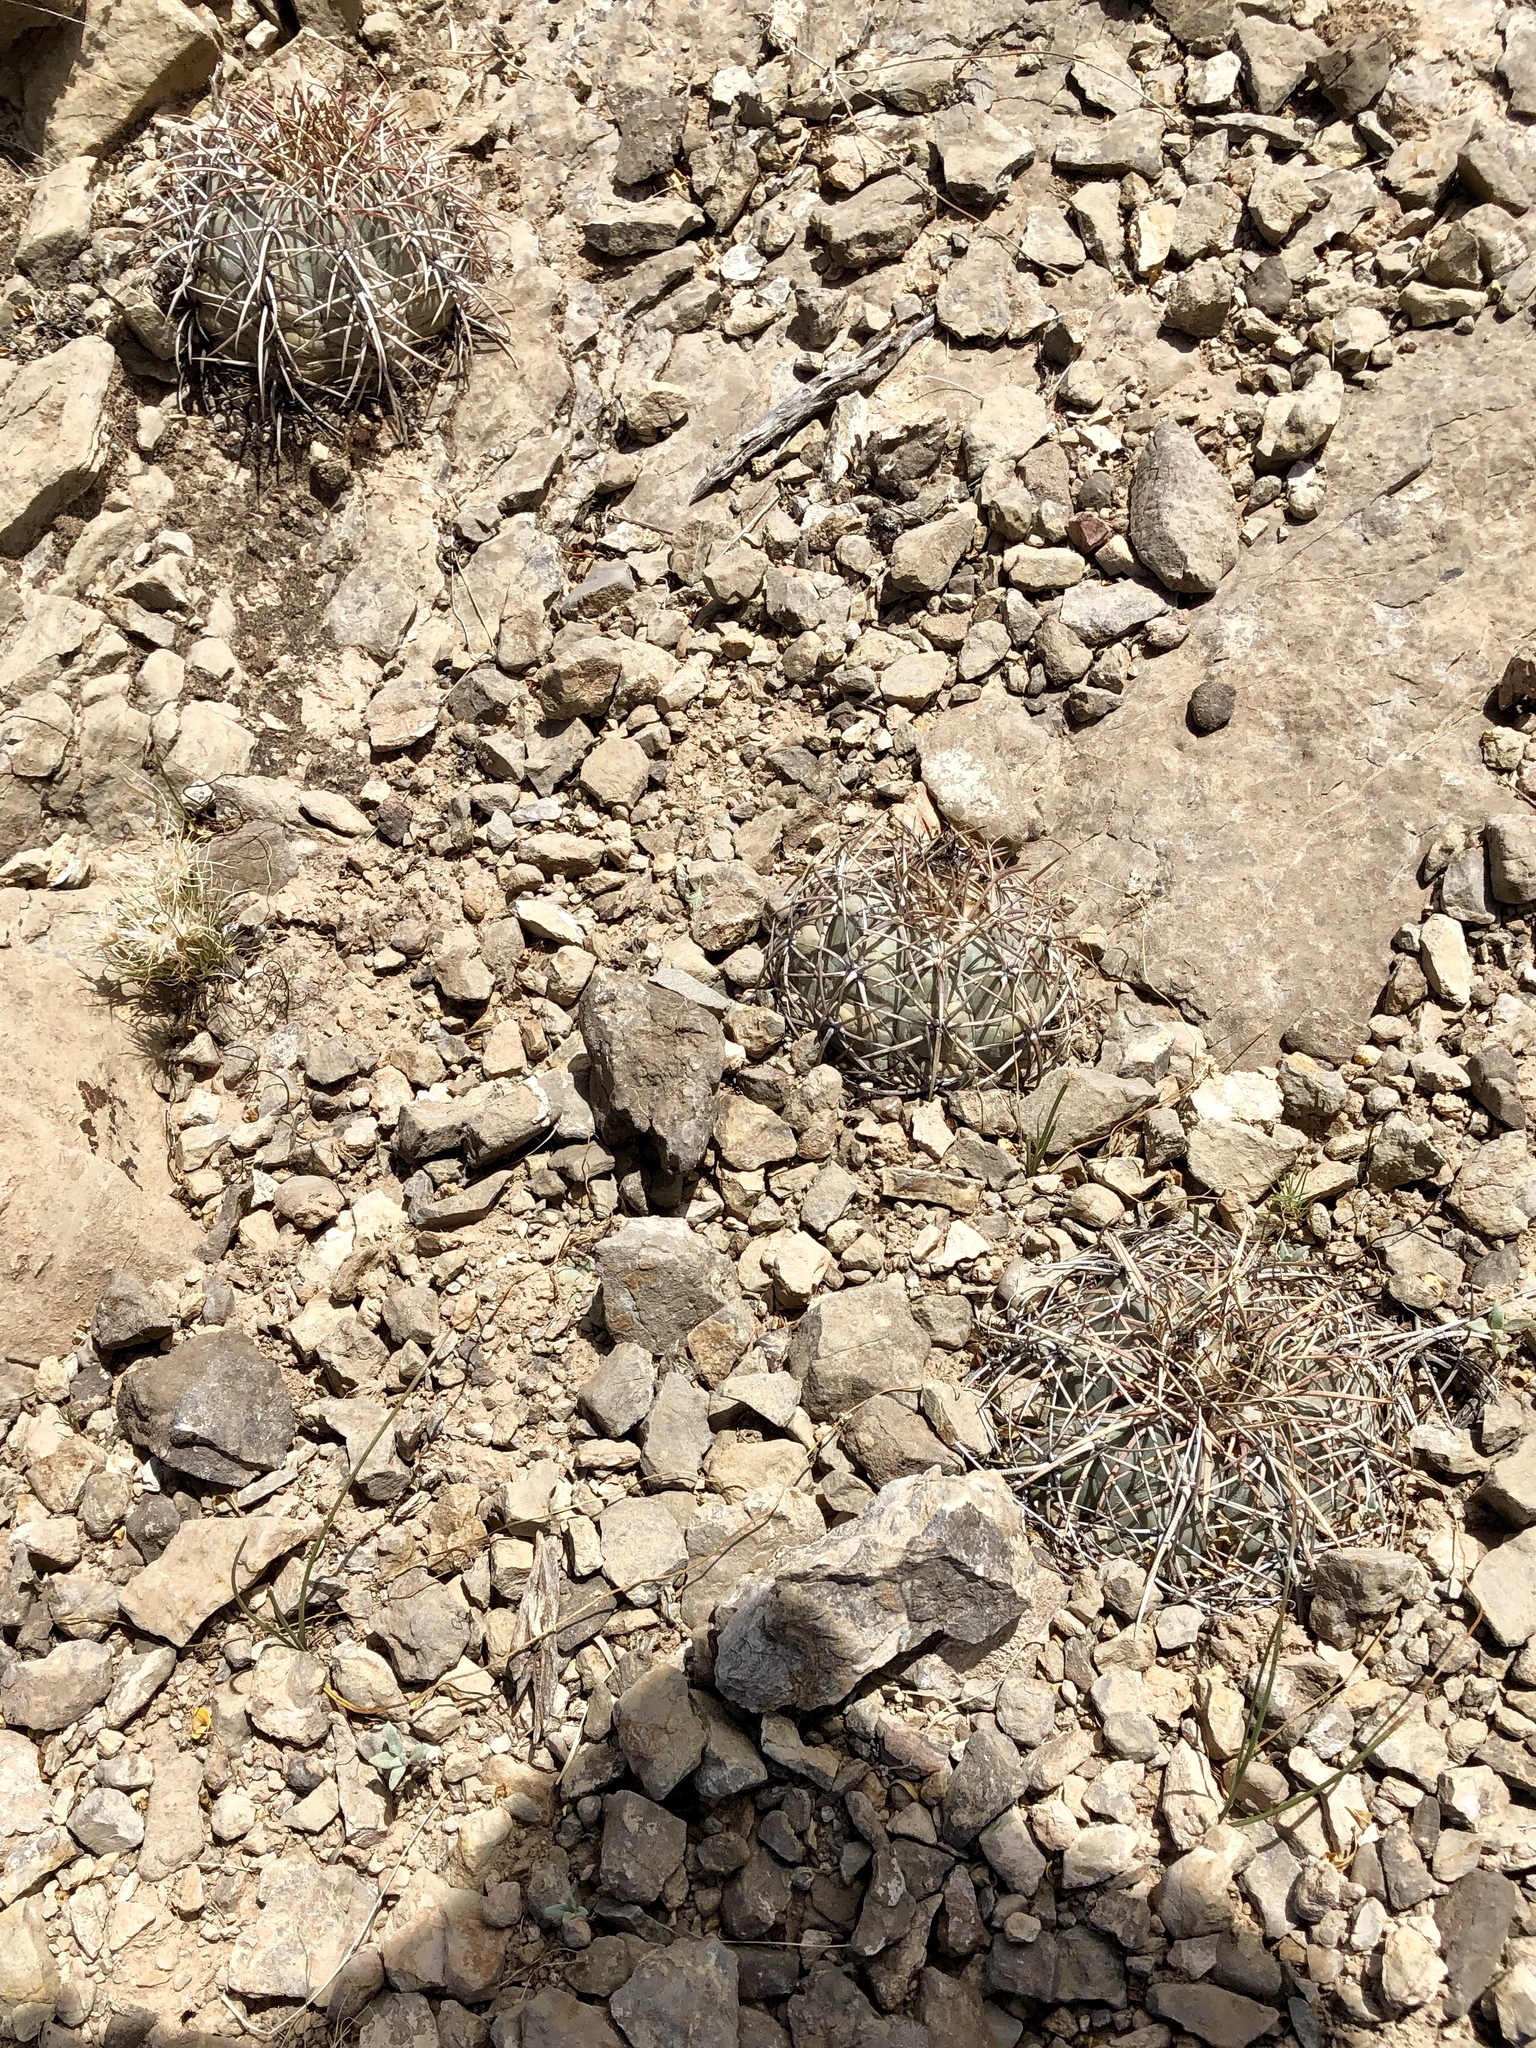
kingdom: Plantae
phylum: Tracheophyta
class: Magnoliopsida
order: Caryophyllales
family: Cactaceae
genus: Echinocactus
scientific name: Echinocactus horizonthalonius
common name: Devilshead
